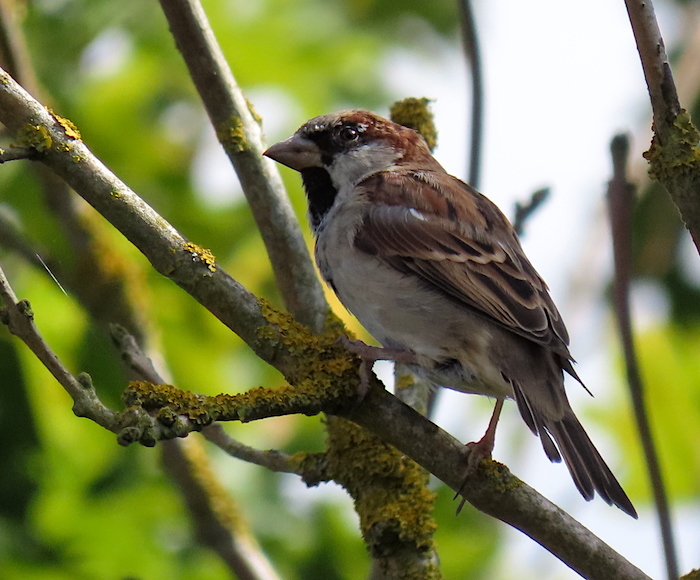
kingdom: Animalia
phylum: Chordata
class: Aves
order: Passeriformes
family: Passeridae
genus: Passer
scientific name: Passer domesticus
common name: House sparrow
